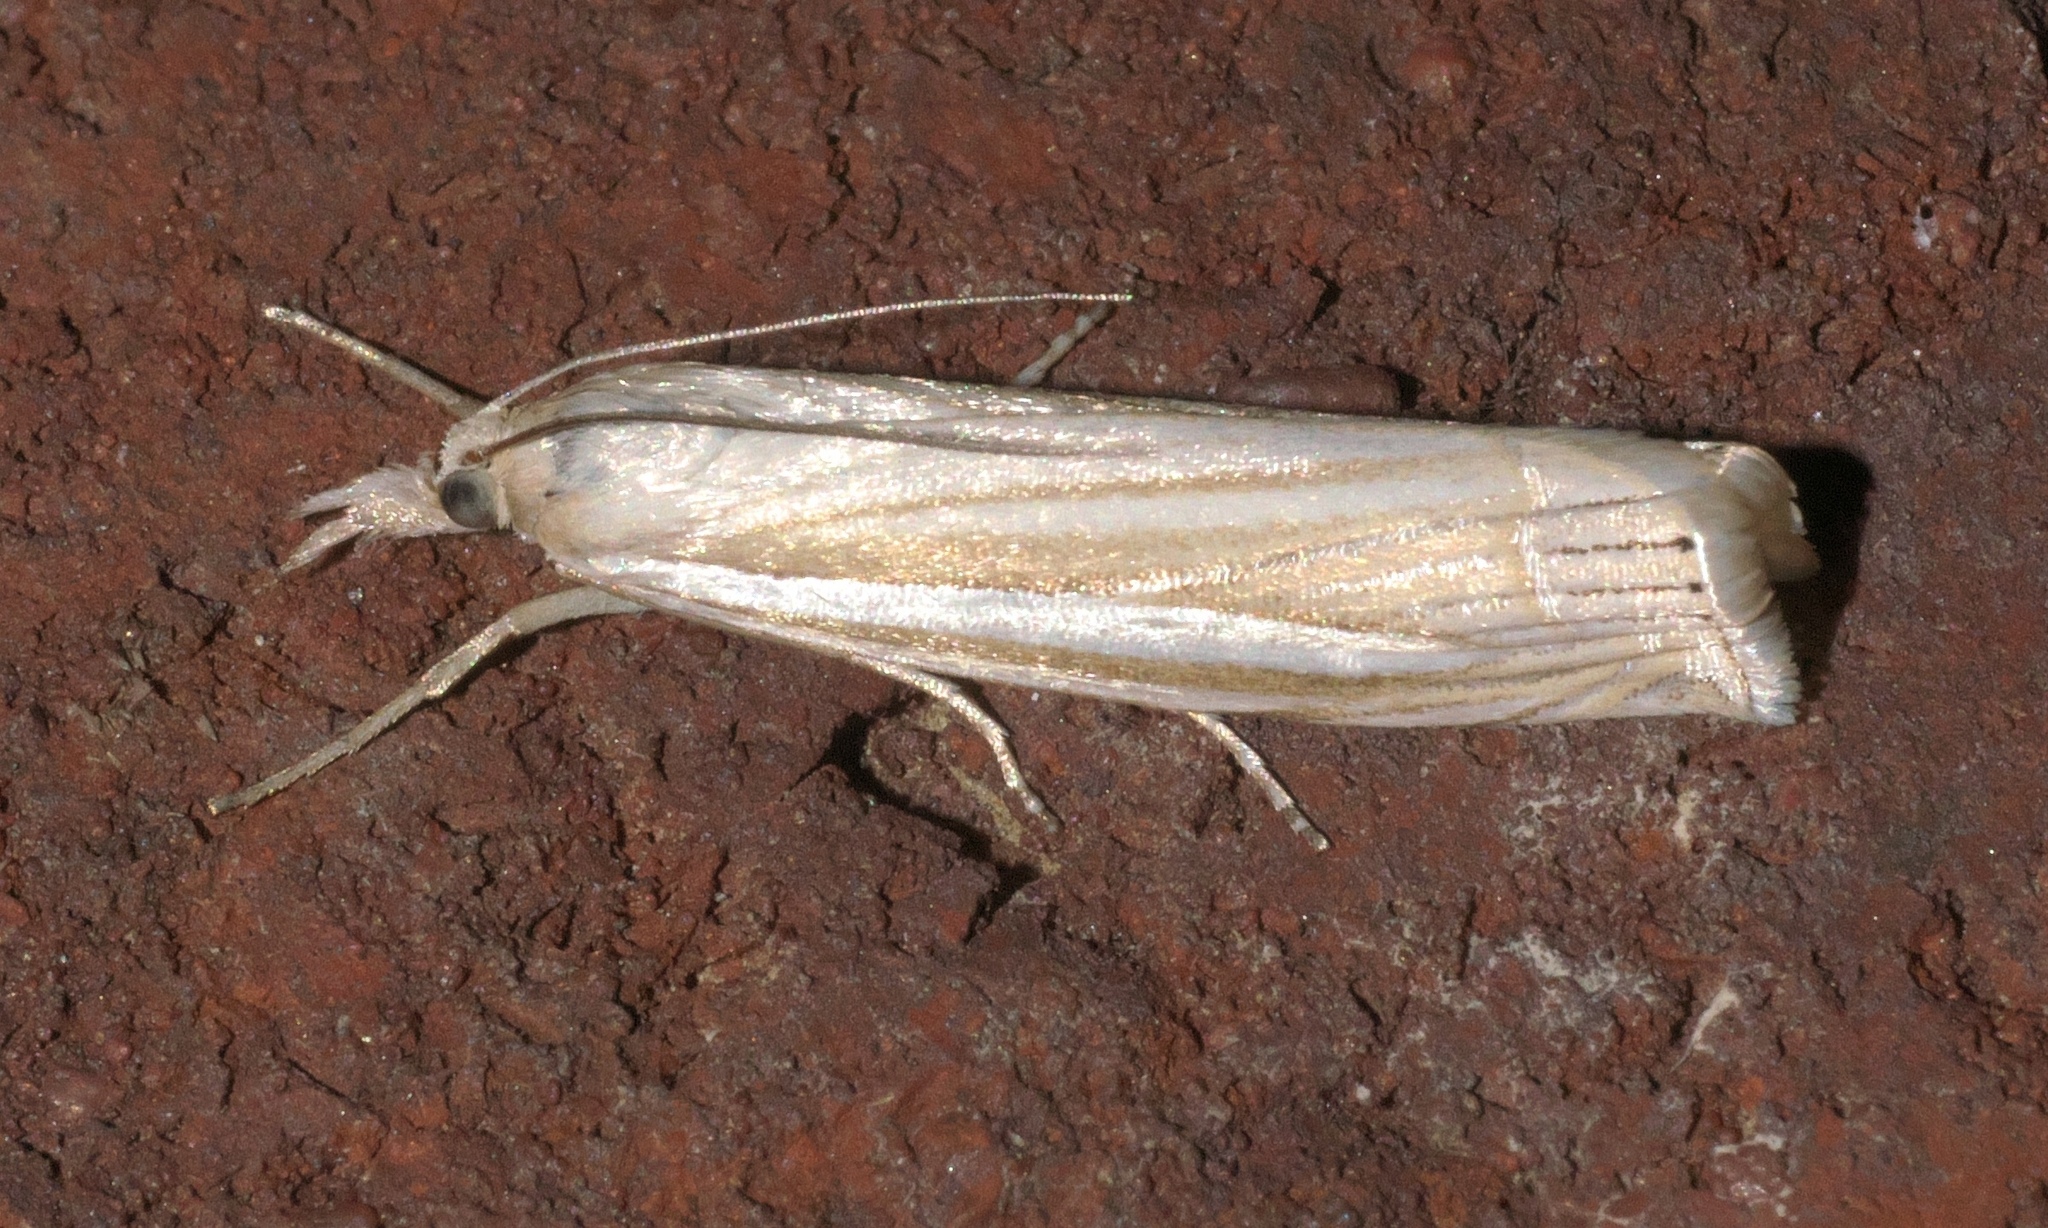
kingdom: Animalia
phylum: Arthropoda
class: Insecta
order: Lepidoptera
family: Crambidae
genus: Crambus
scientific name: Crambus laqueatellus
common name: Eastern grass-veneer
